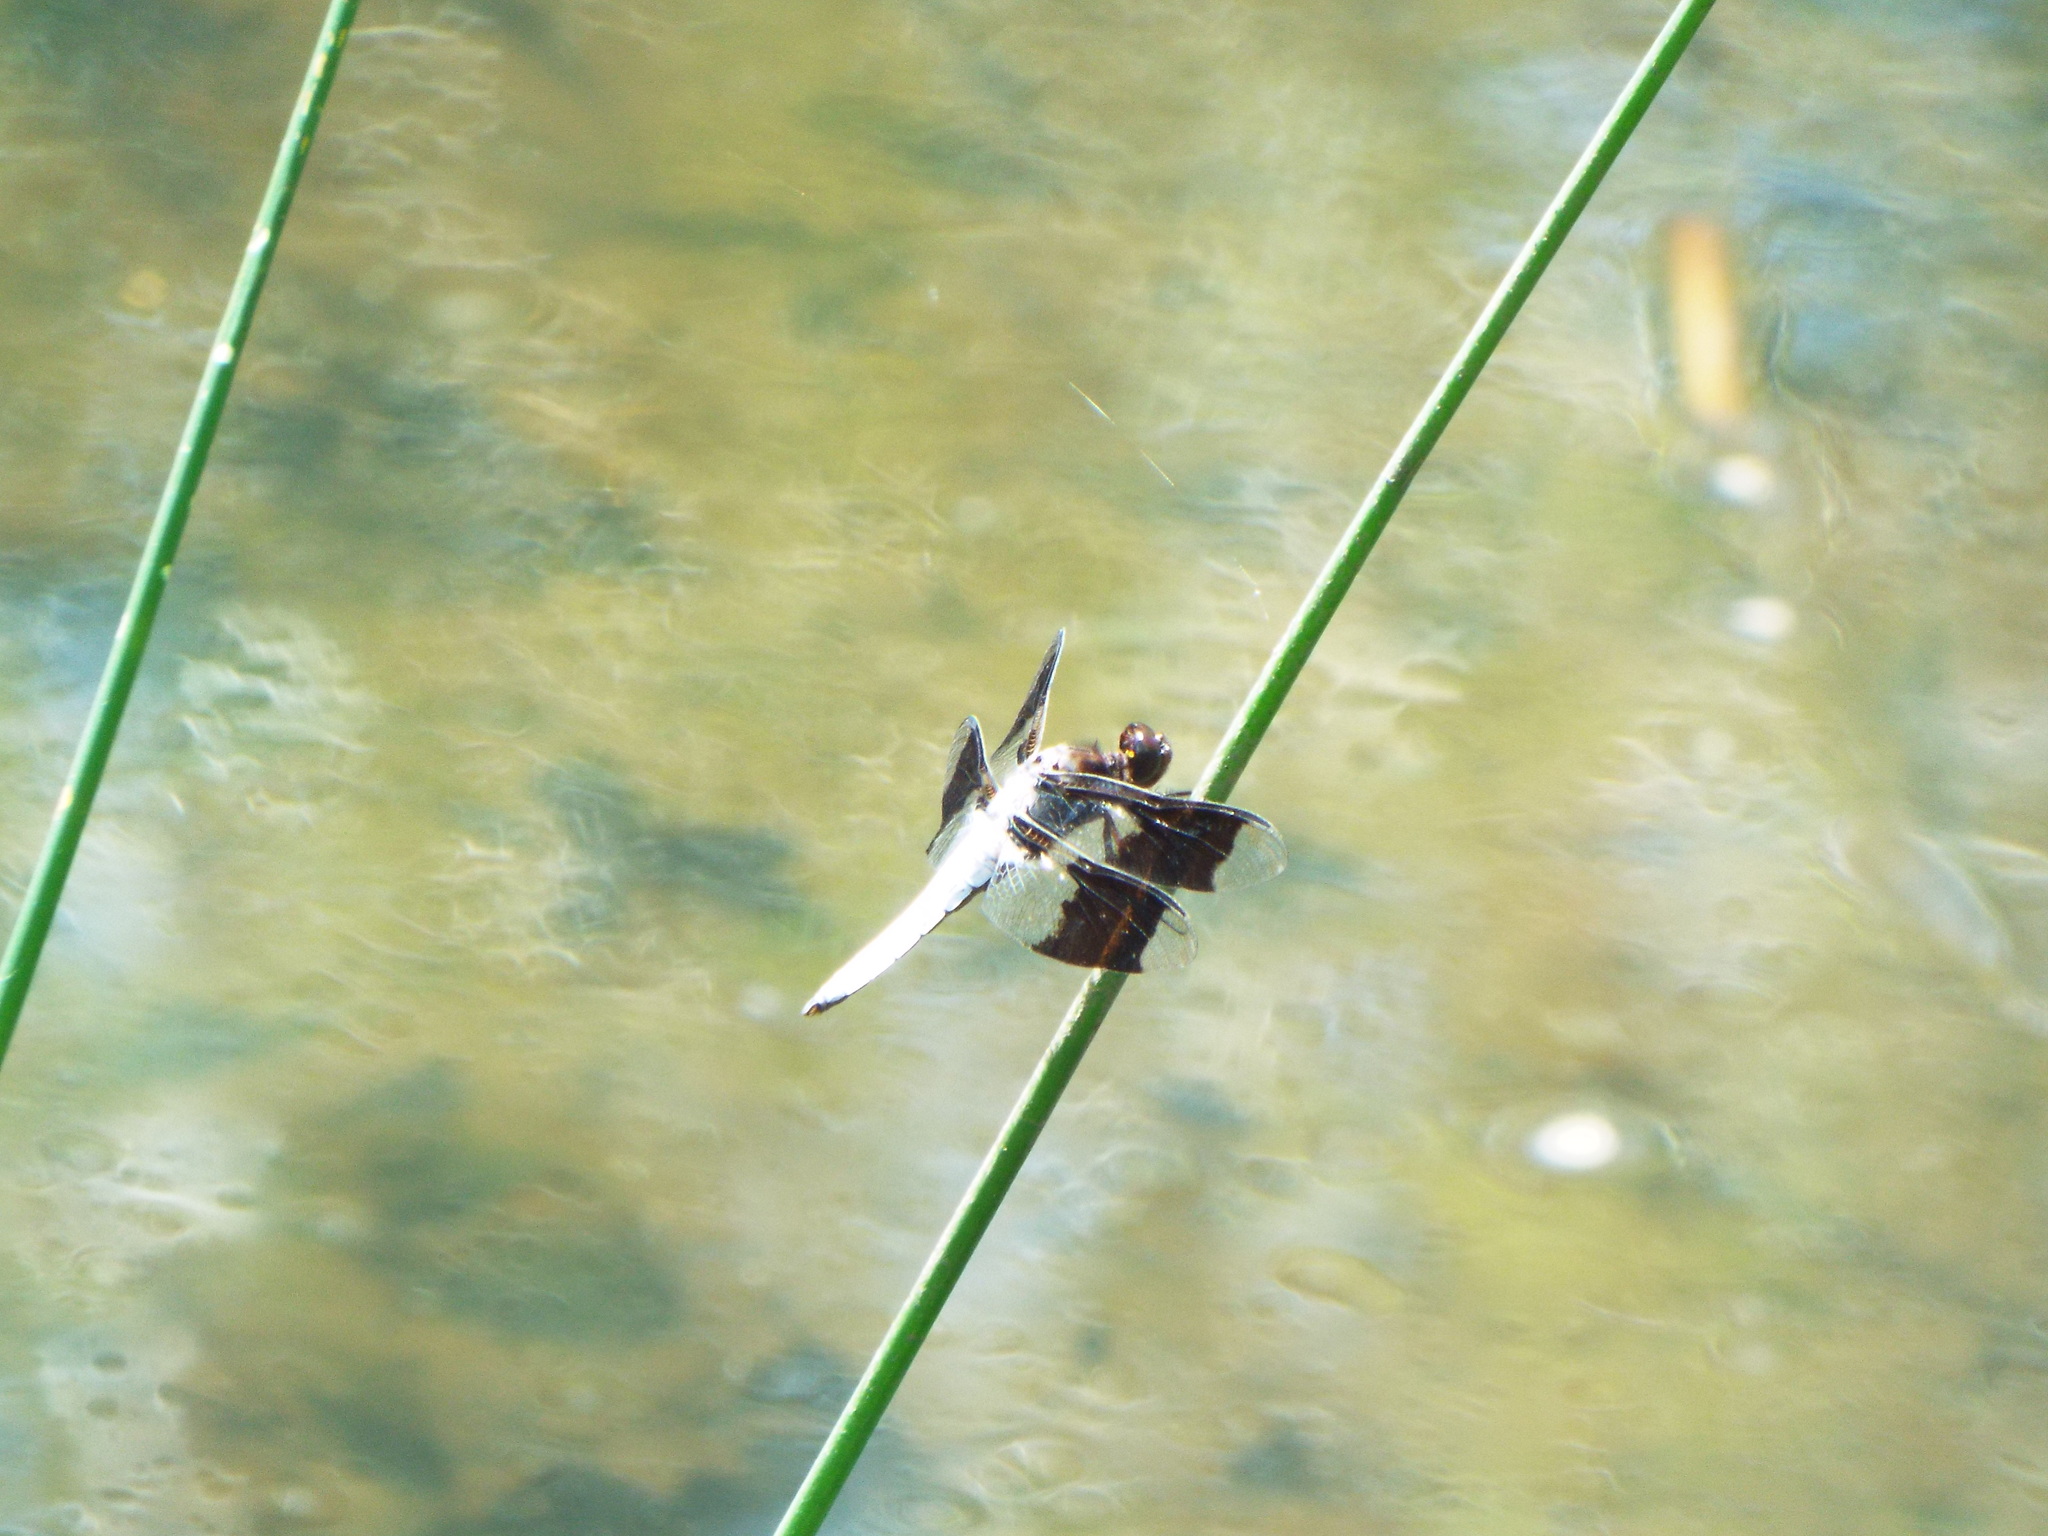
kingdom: Animalia
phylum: Arthropoda
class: Insecta
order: Odonata
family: Libellulidae
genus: Plathemis
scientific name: Plathemis lydia
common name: Common whitetail
